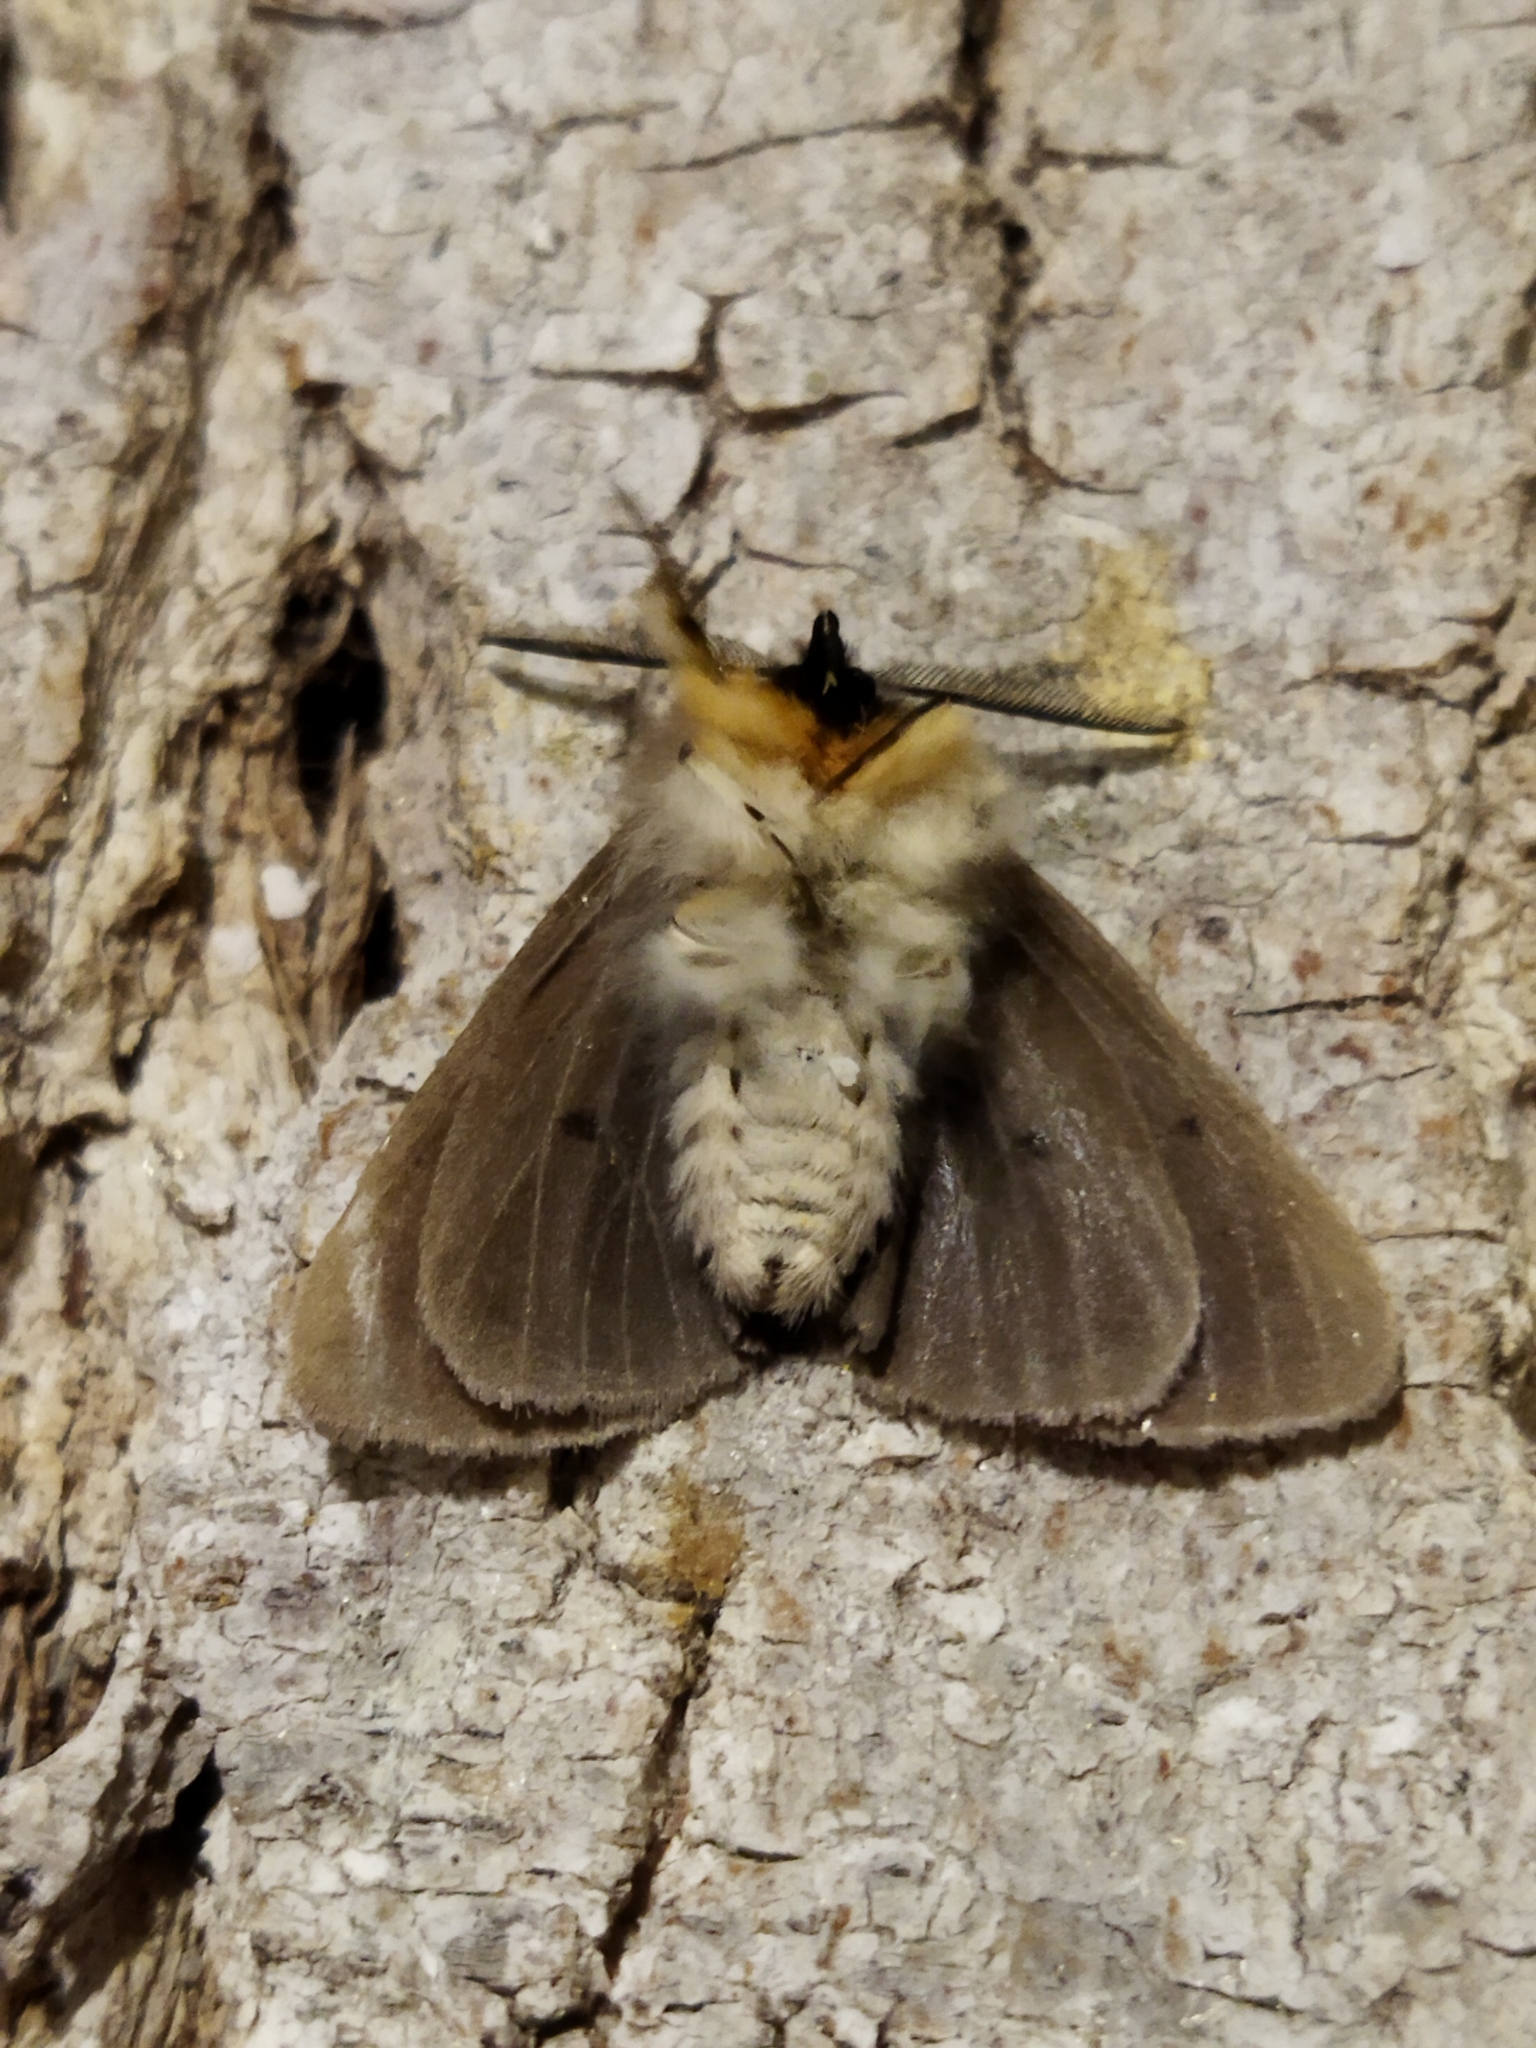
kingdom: Animalia
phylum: Arthropoda
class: Insecta
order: Lepidoptera
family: Erebidae
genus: Diaphora
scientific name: Diaphora mendica
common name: Muslin moth
